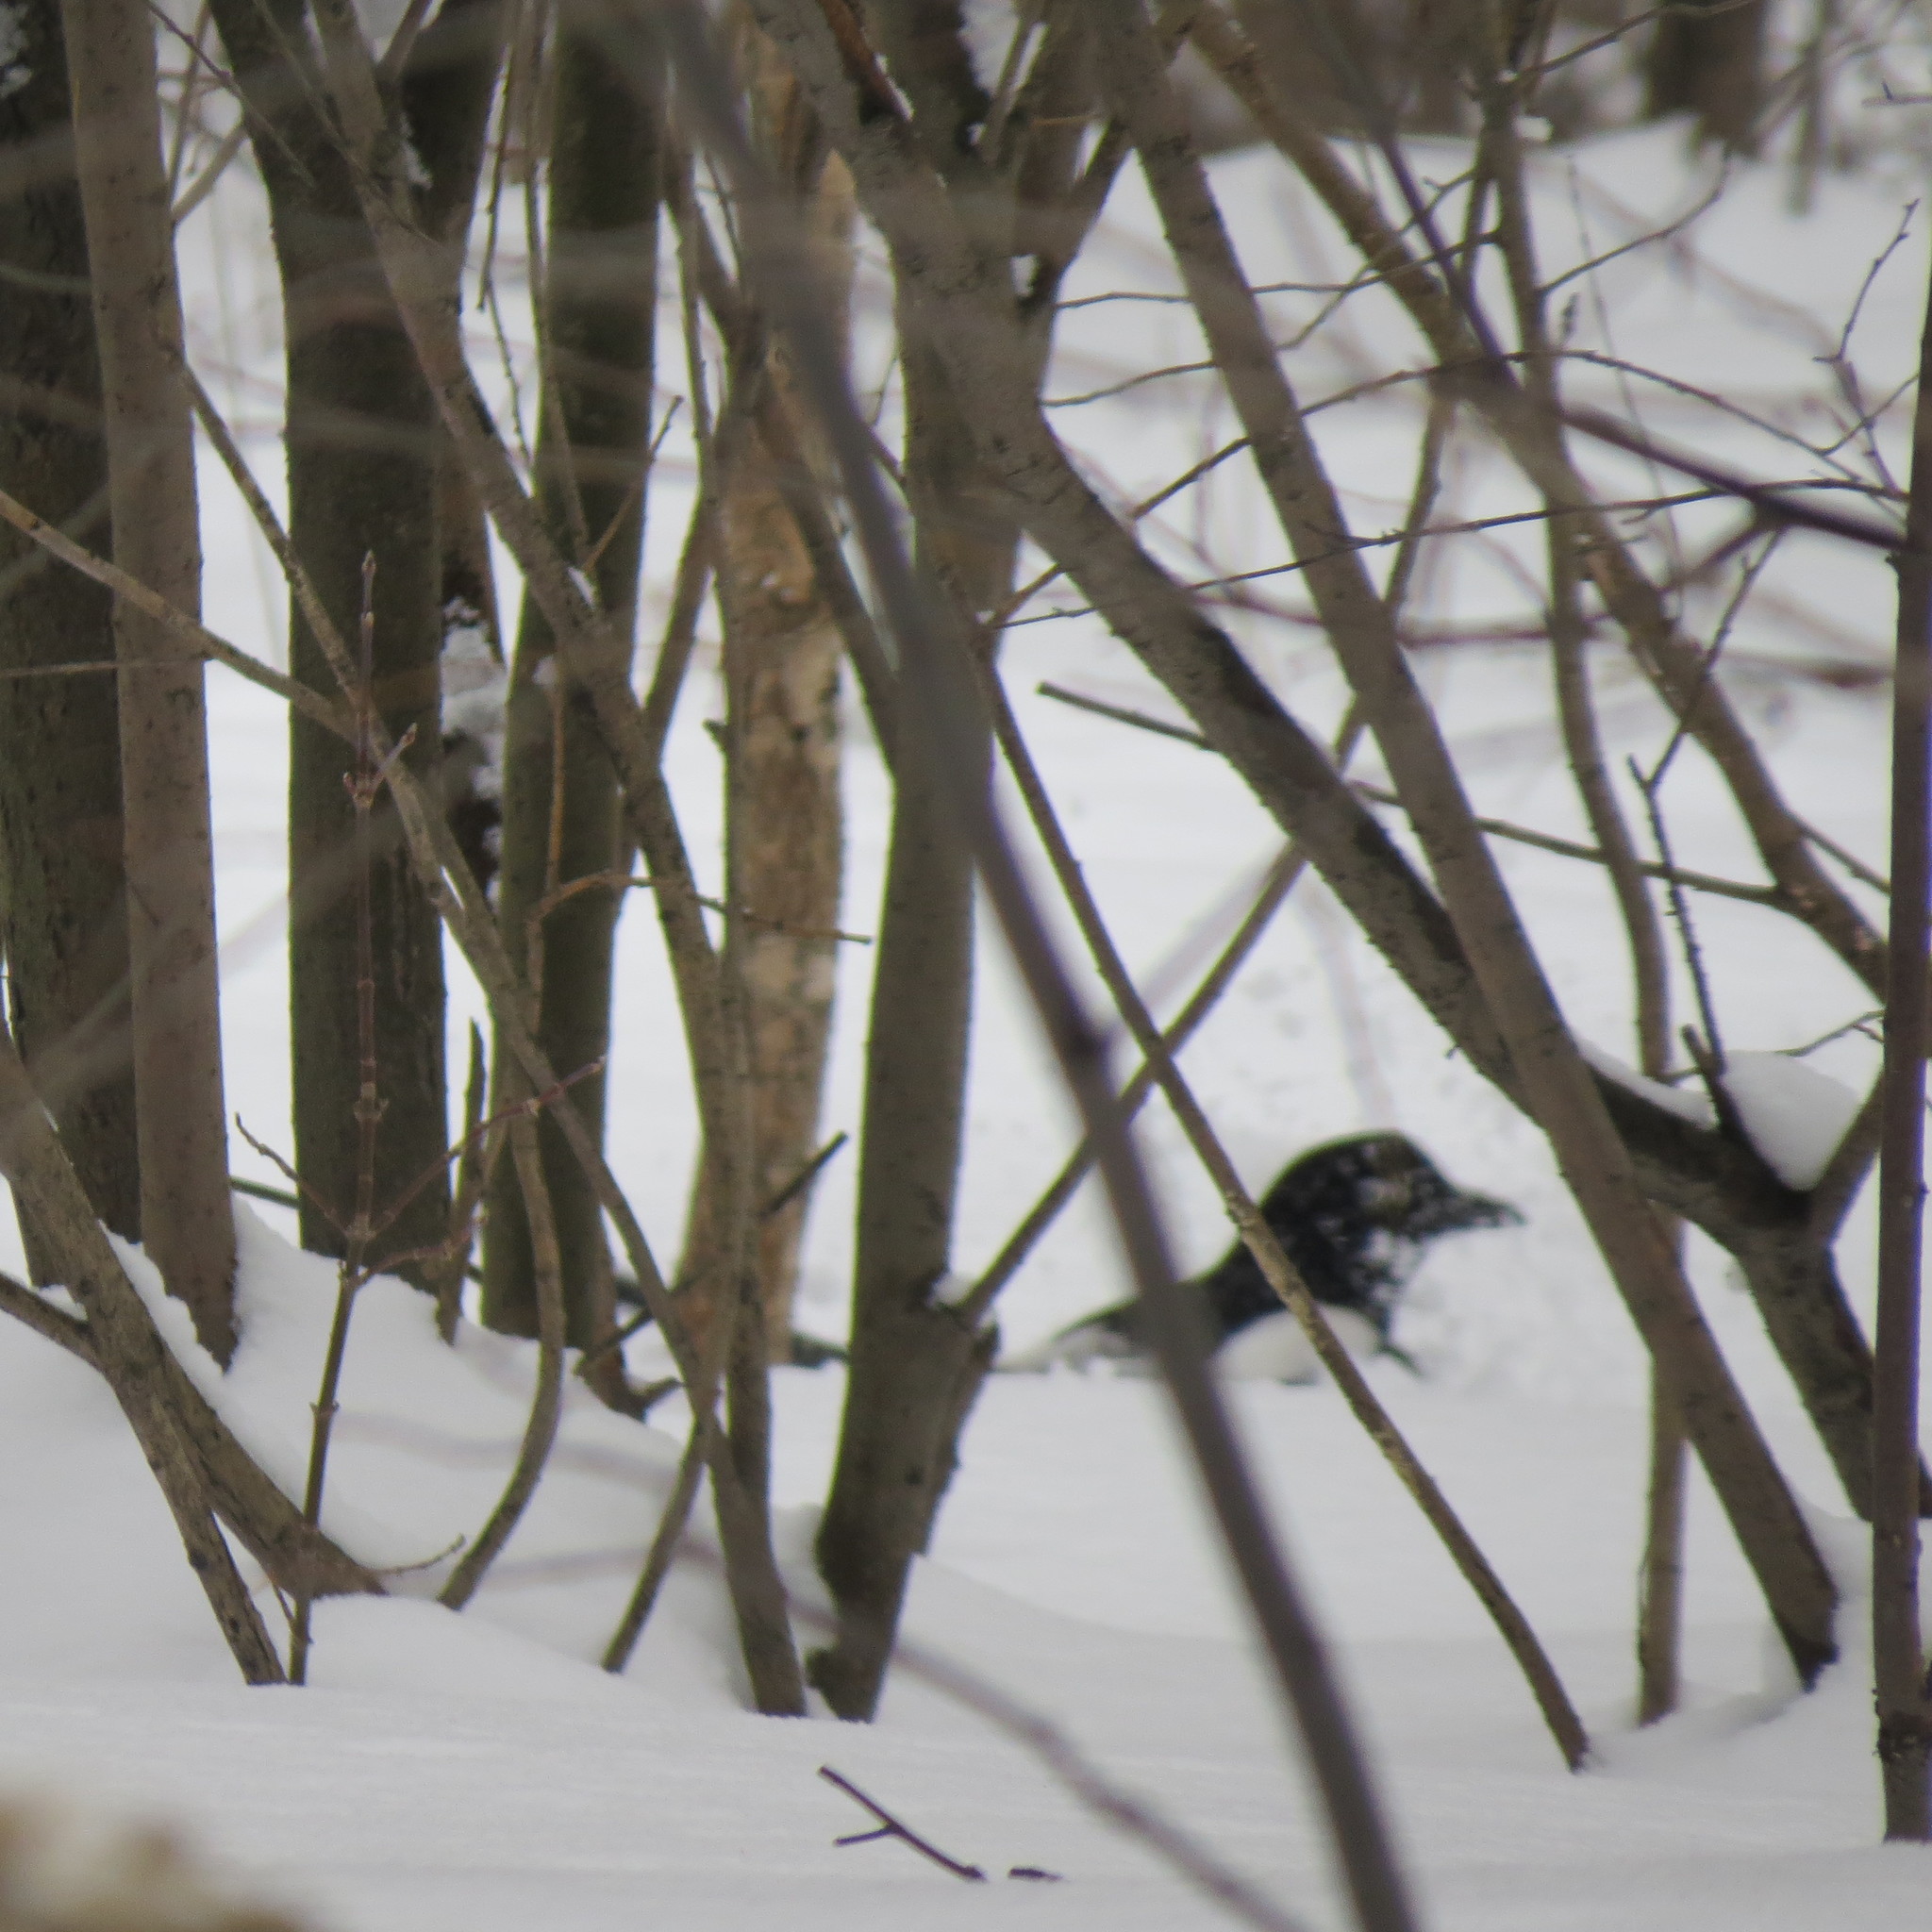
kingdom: Animalia
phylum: Chordata
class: Aves
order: Passeriformes
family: Corvidae
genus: Pica
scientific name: Pica pica
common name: Eurasian magpie
